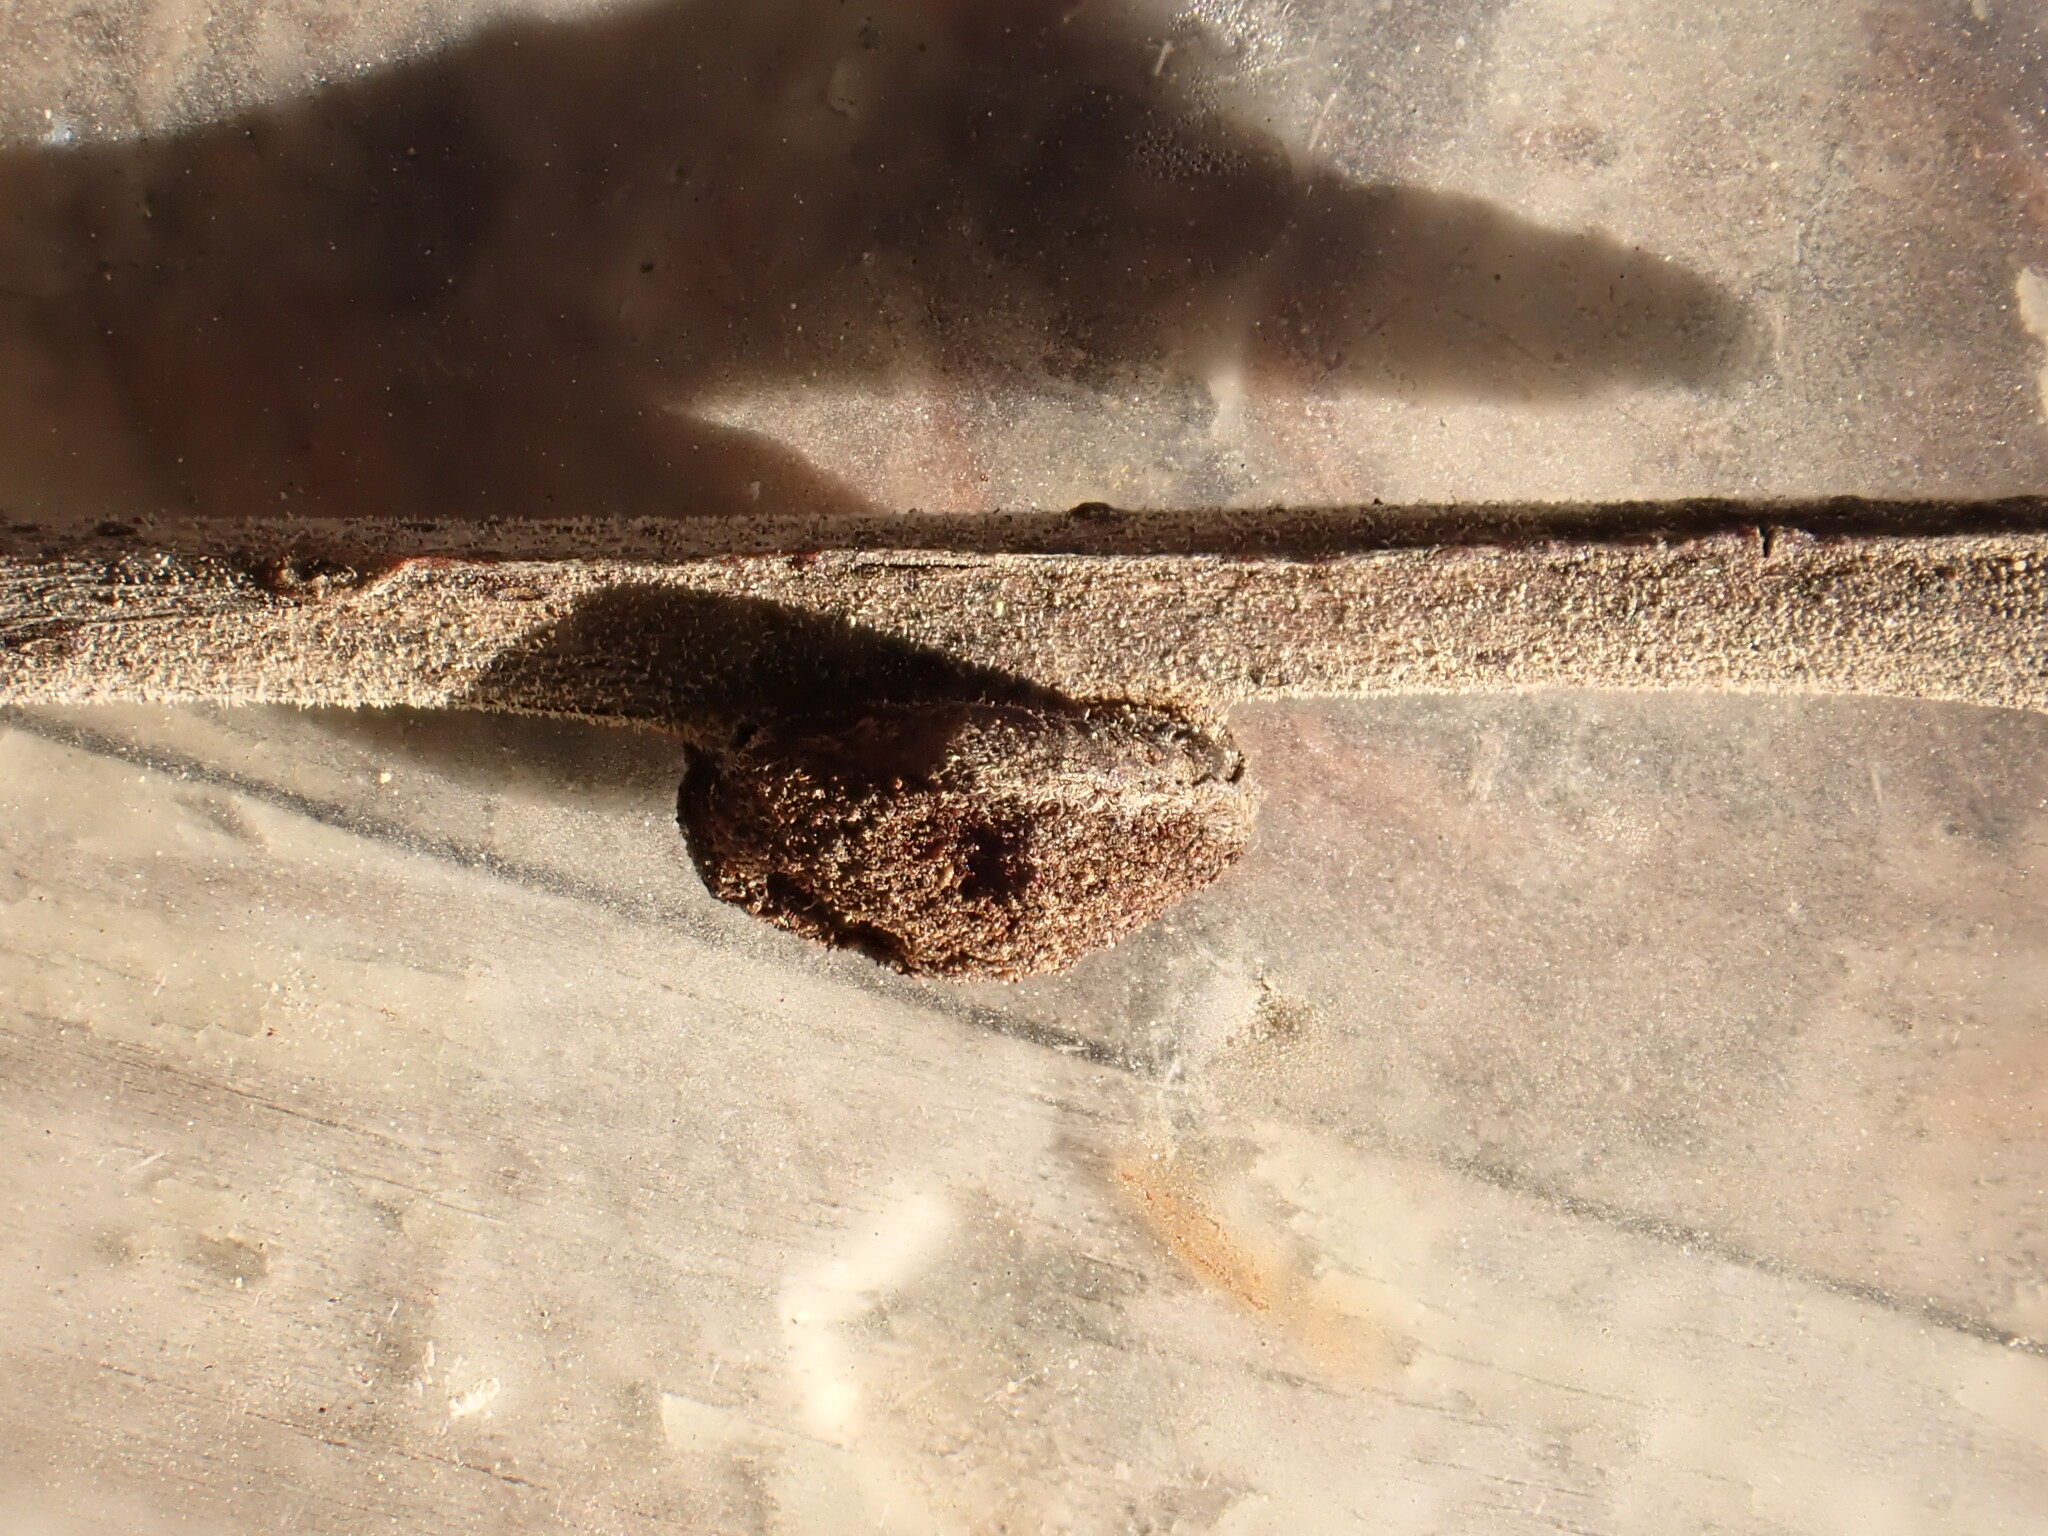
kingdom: Animalia
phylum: Arthropoda
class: Arachnida
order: Trombidiformes
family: Eriophyidae
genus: Aceria
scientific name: Aceria
